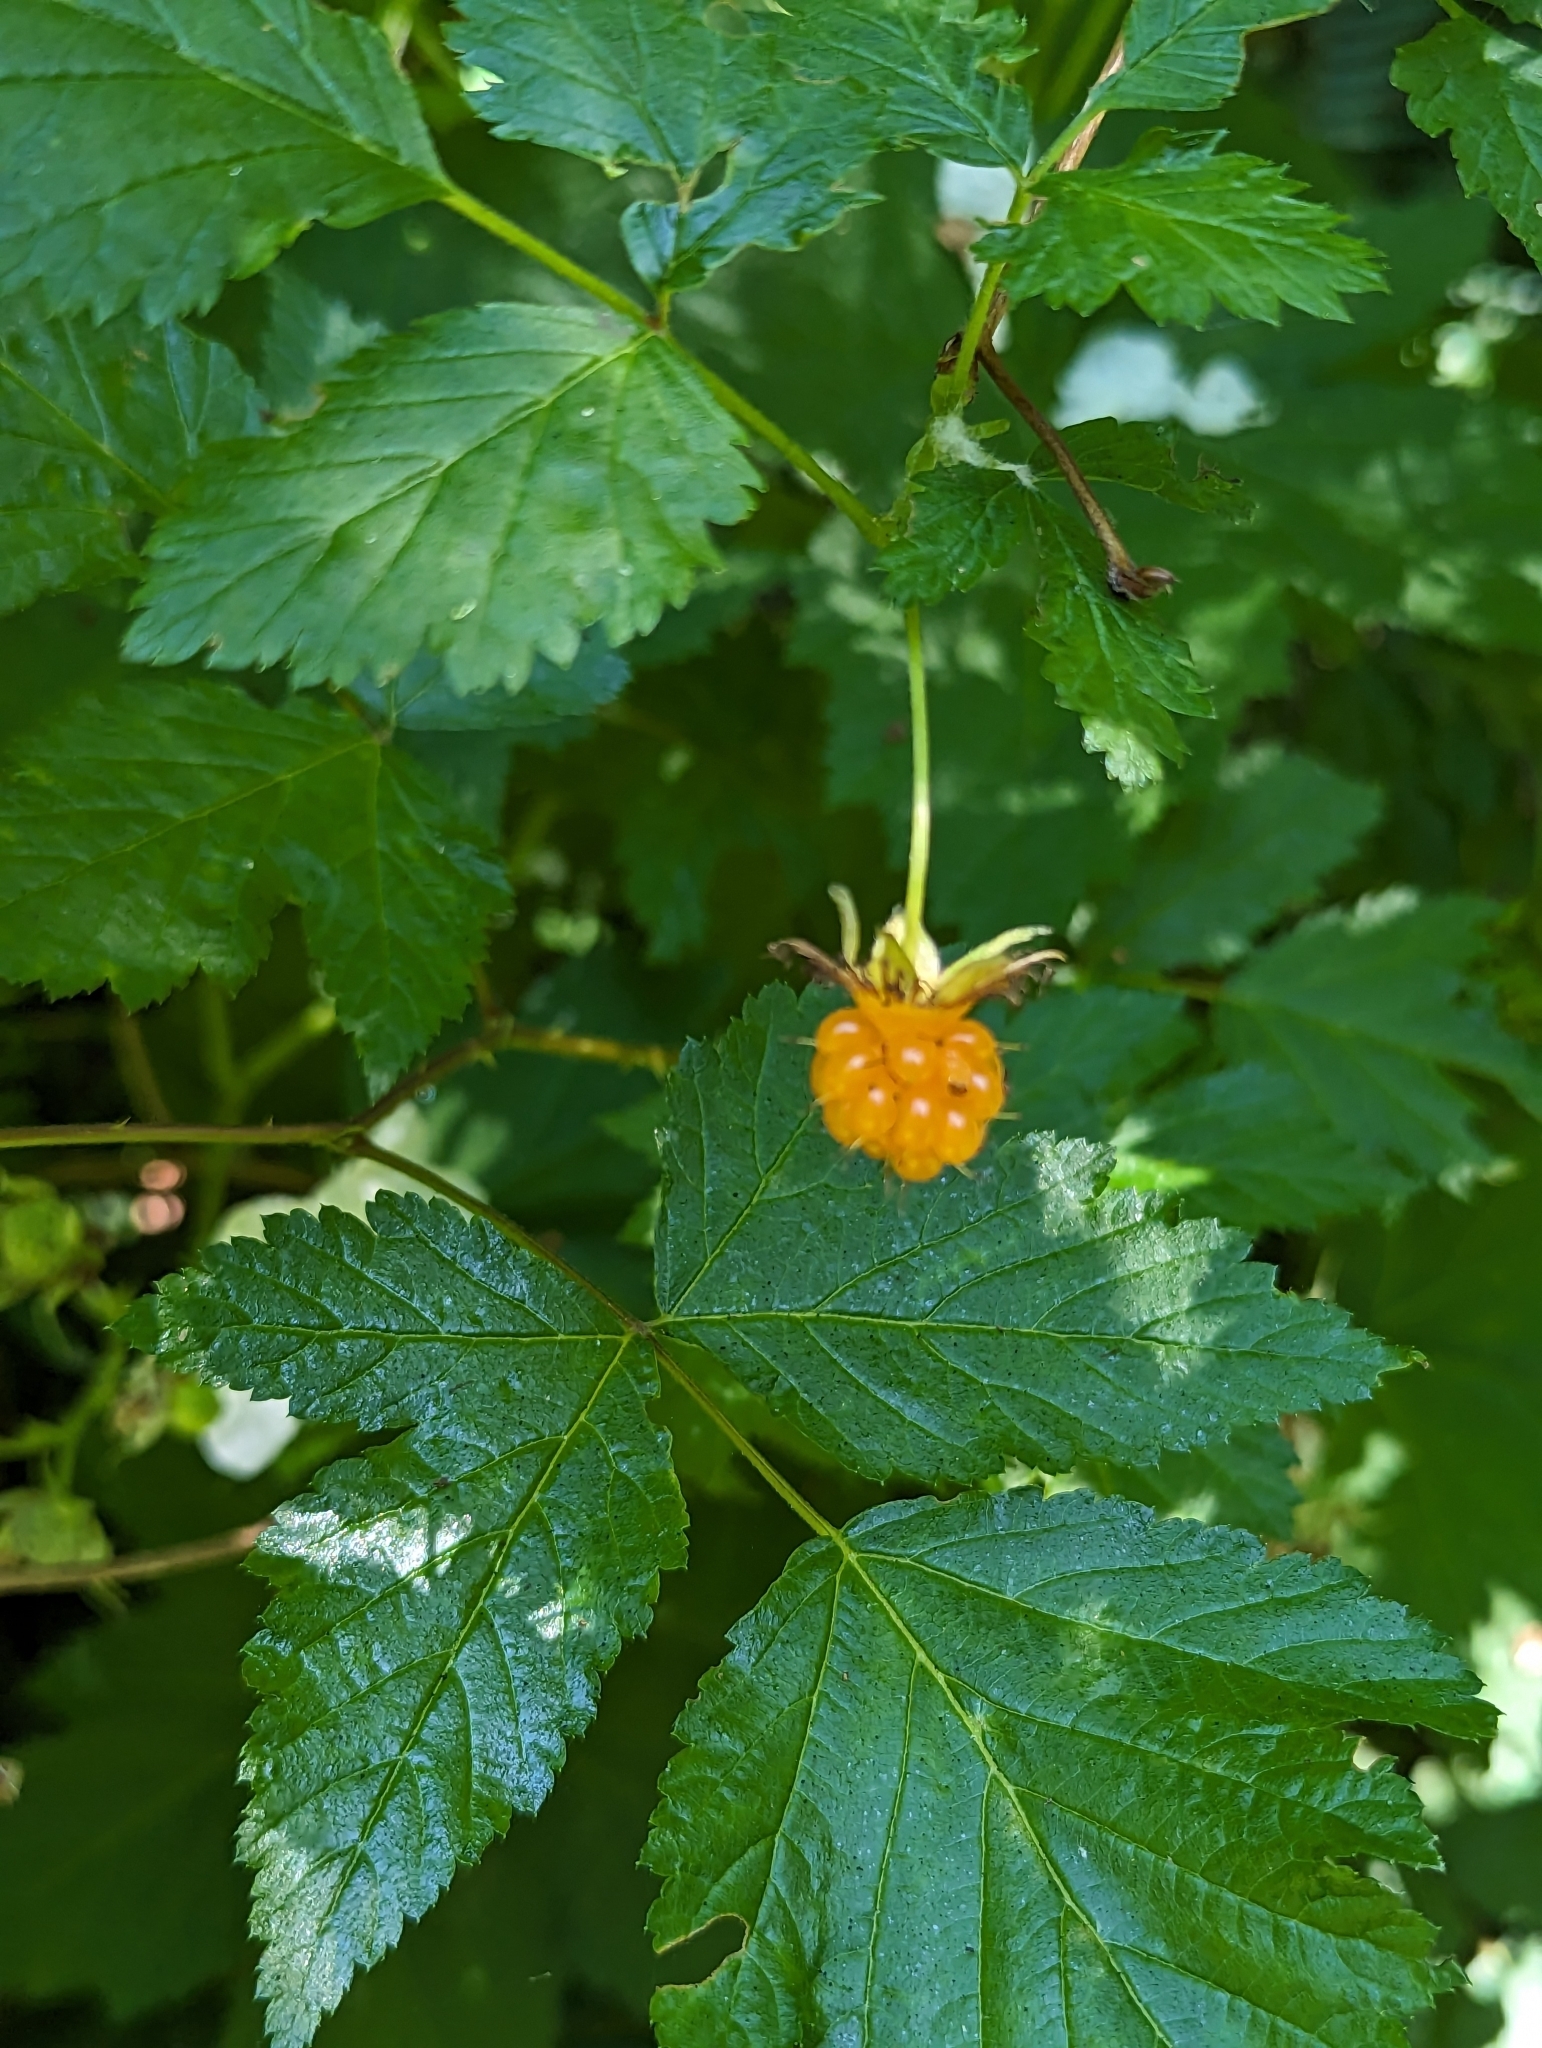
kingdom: Plantae
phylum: Tracheophyta
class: Magnoliopsida
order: Rosales
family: Rosaceae
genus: Rubus
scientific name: Rubus spectabilis
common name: Salmonberry
